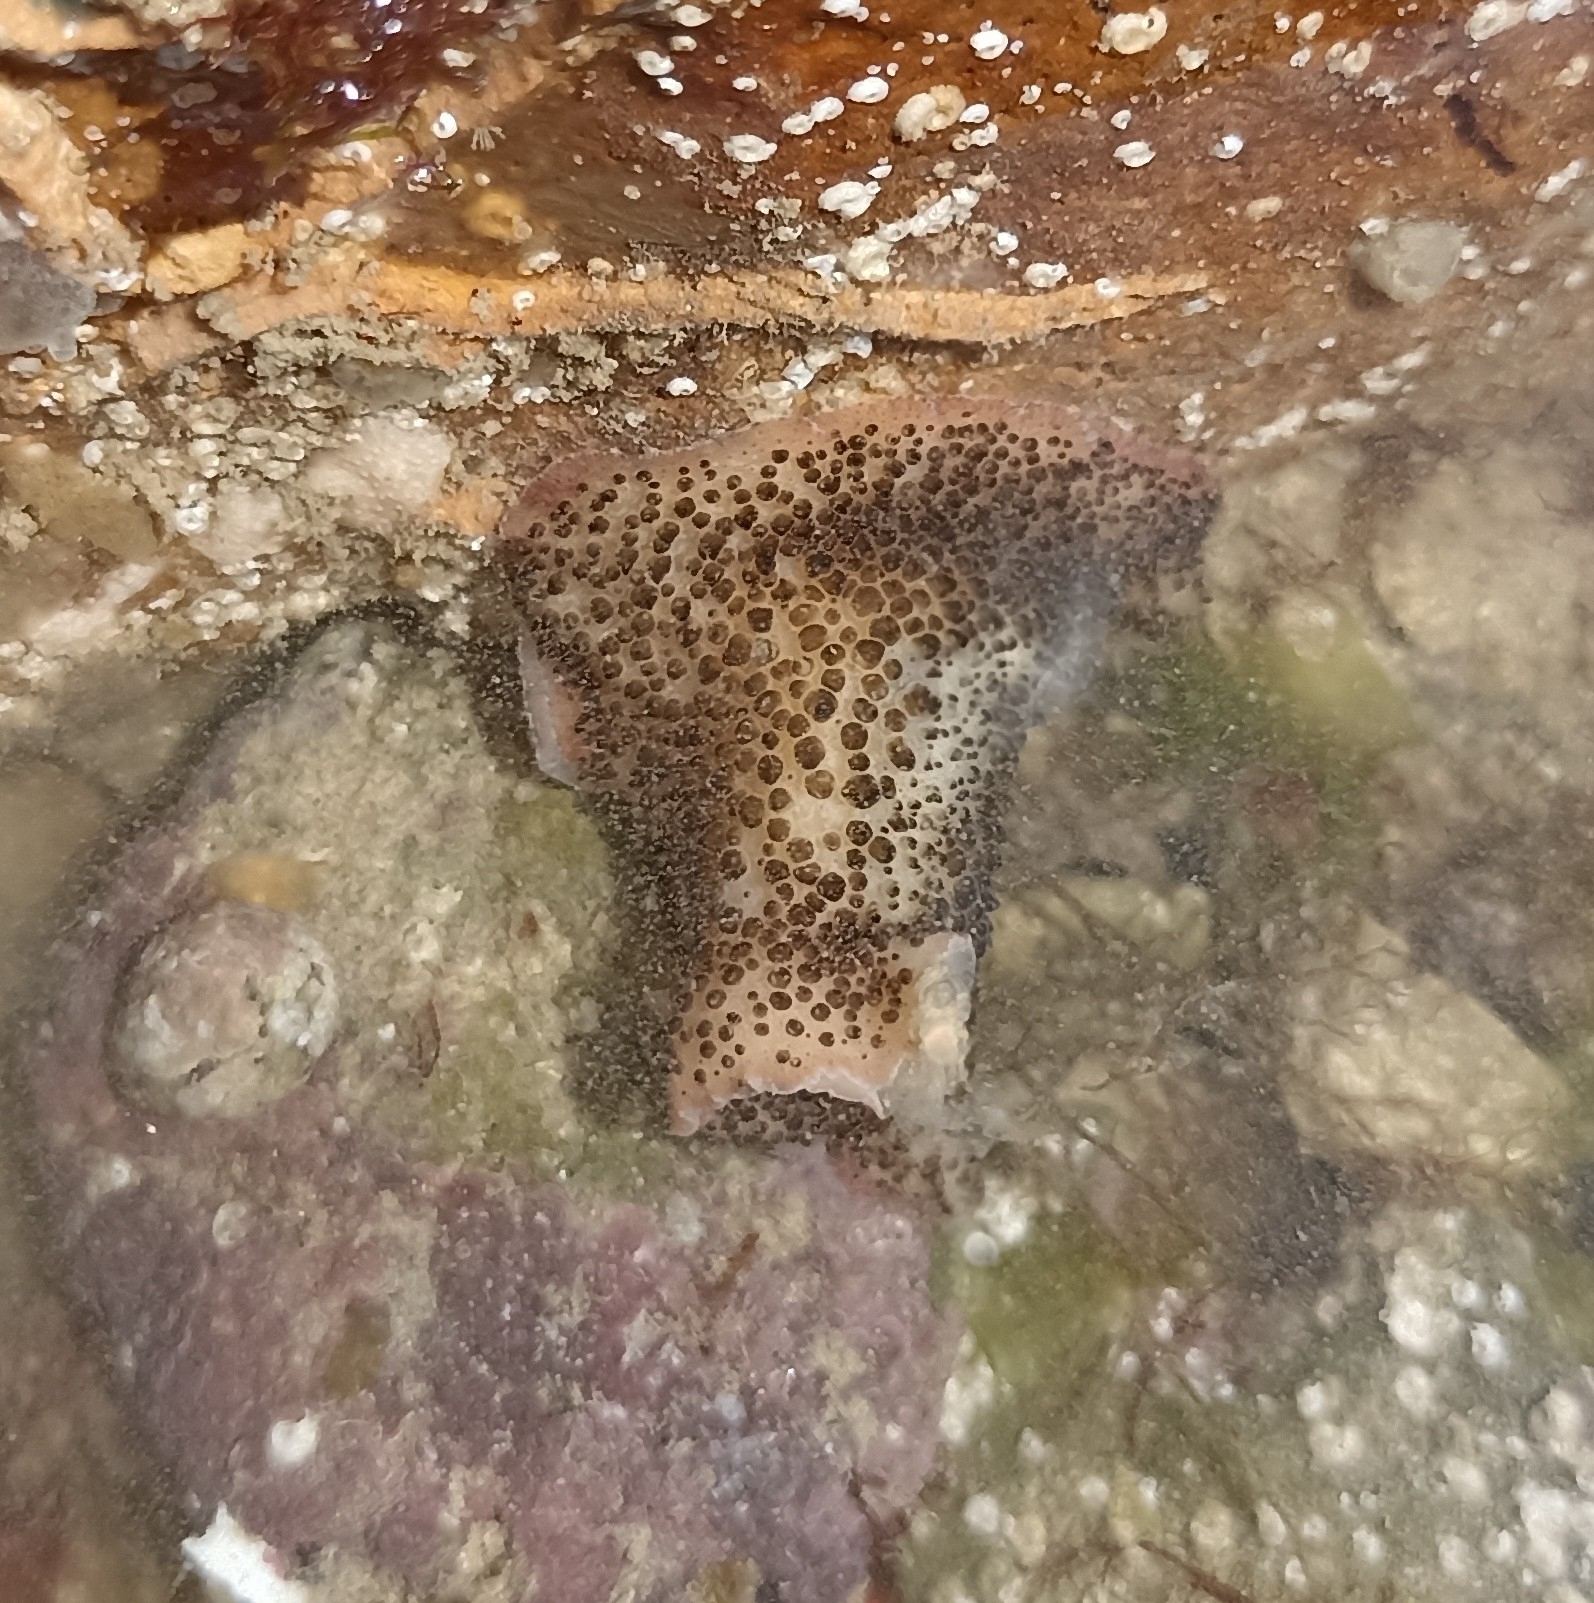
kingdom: Animalia
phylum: Platyhelminthes
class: Turbellaria
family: Pseudocerotidae
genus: Thysanozoon
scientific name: Thysanozoon brocchii
